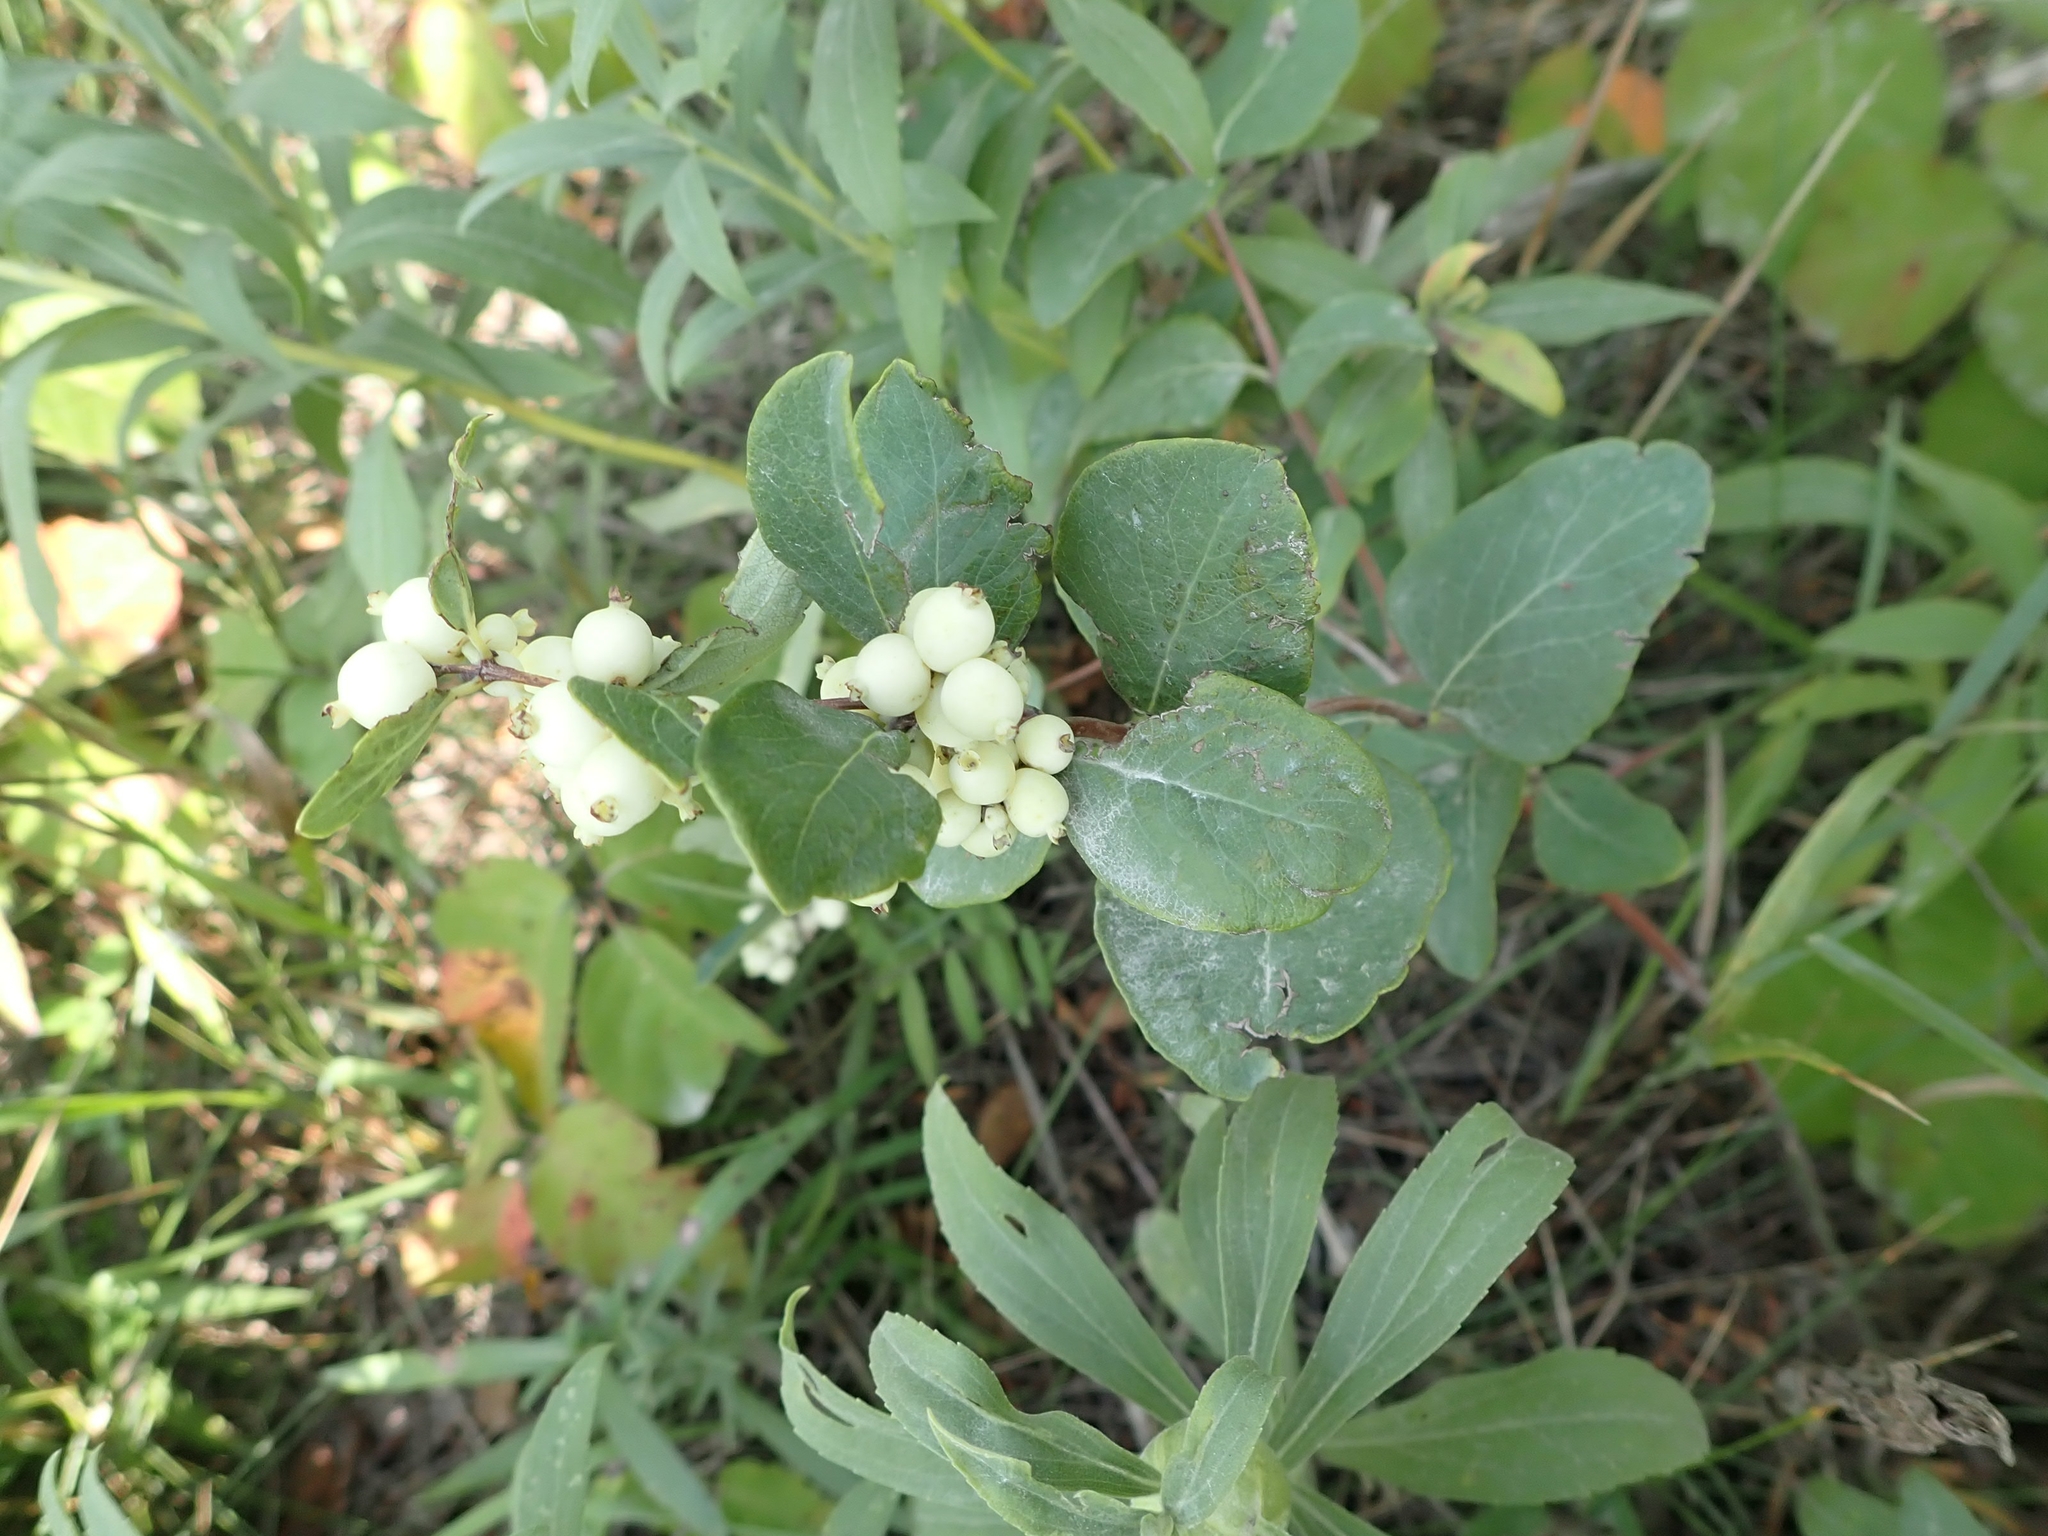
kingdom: Plantae
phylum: Tracheophyta
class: Magnoliopsida
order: Dipsacales
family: Caprifoliaceae
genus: Symphoricarpos
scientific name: Symphoricarpos occidentalis
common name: Wolfberry
